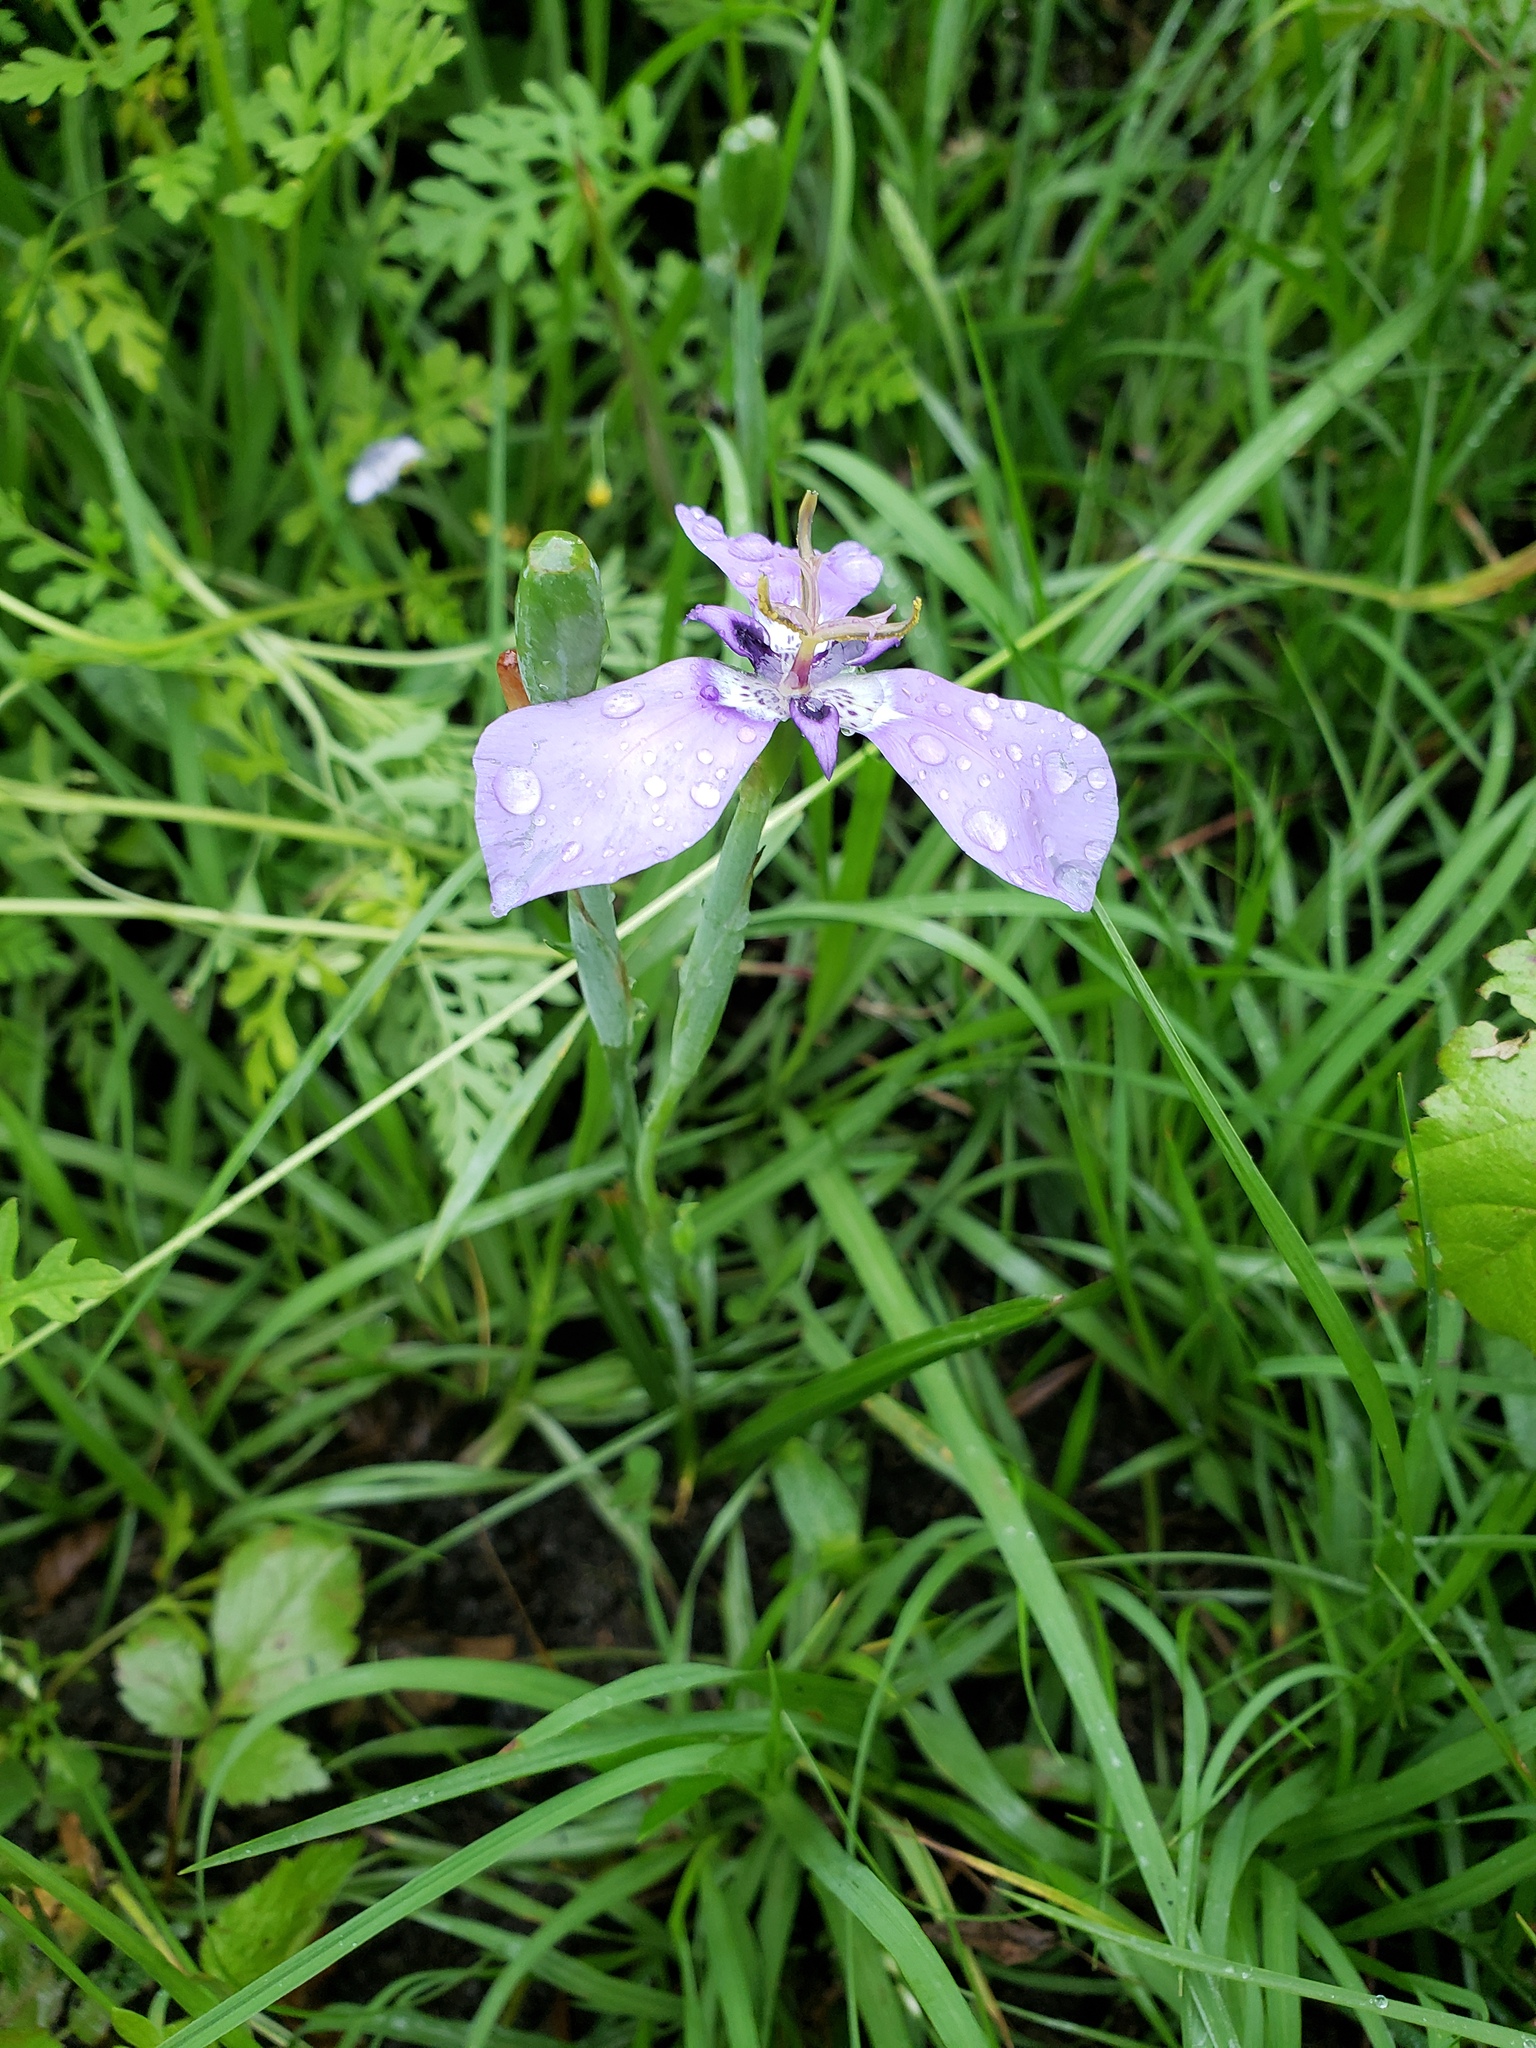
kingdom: Plantae
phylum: Tracheophyta
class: Liliopsida
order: Asparagales
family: Iridaceae
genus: Herbertia
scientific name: Herbertia lahue
